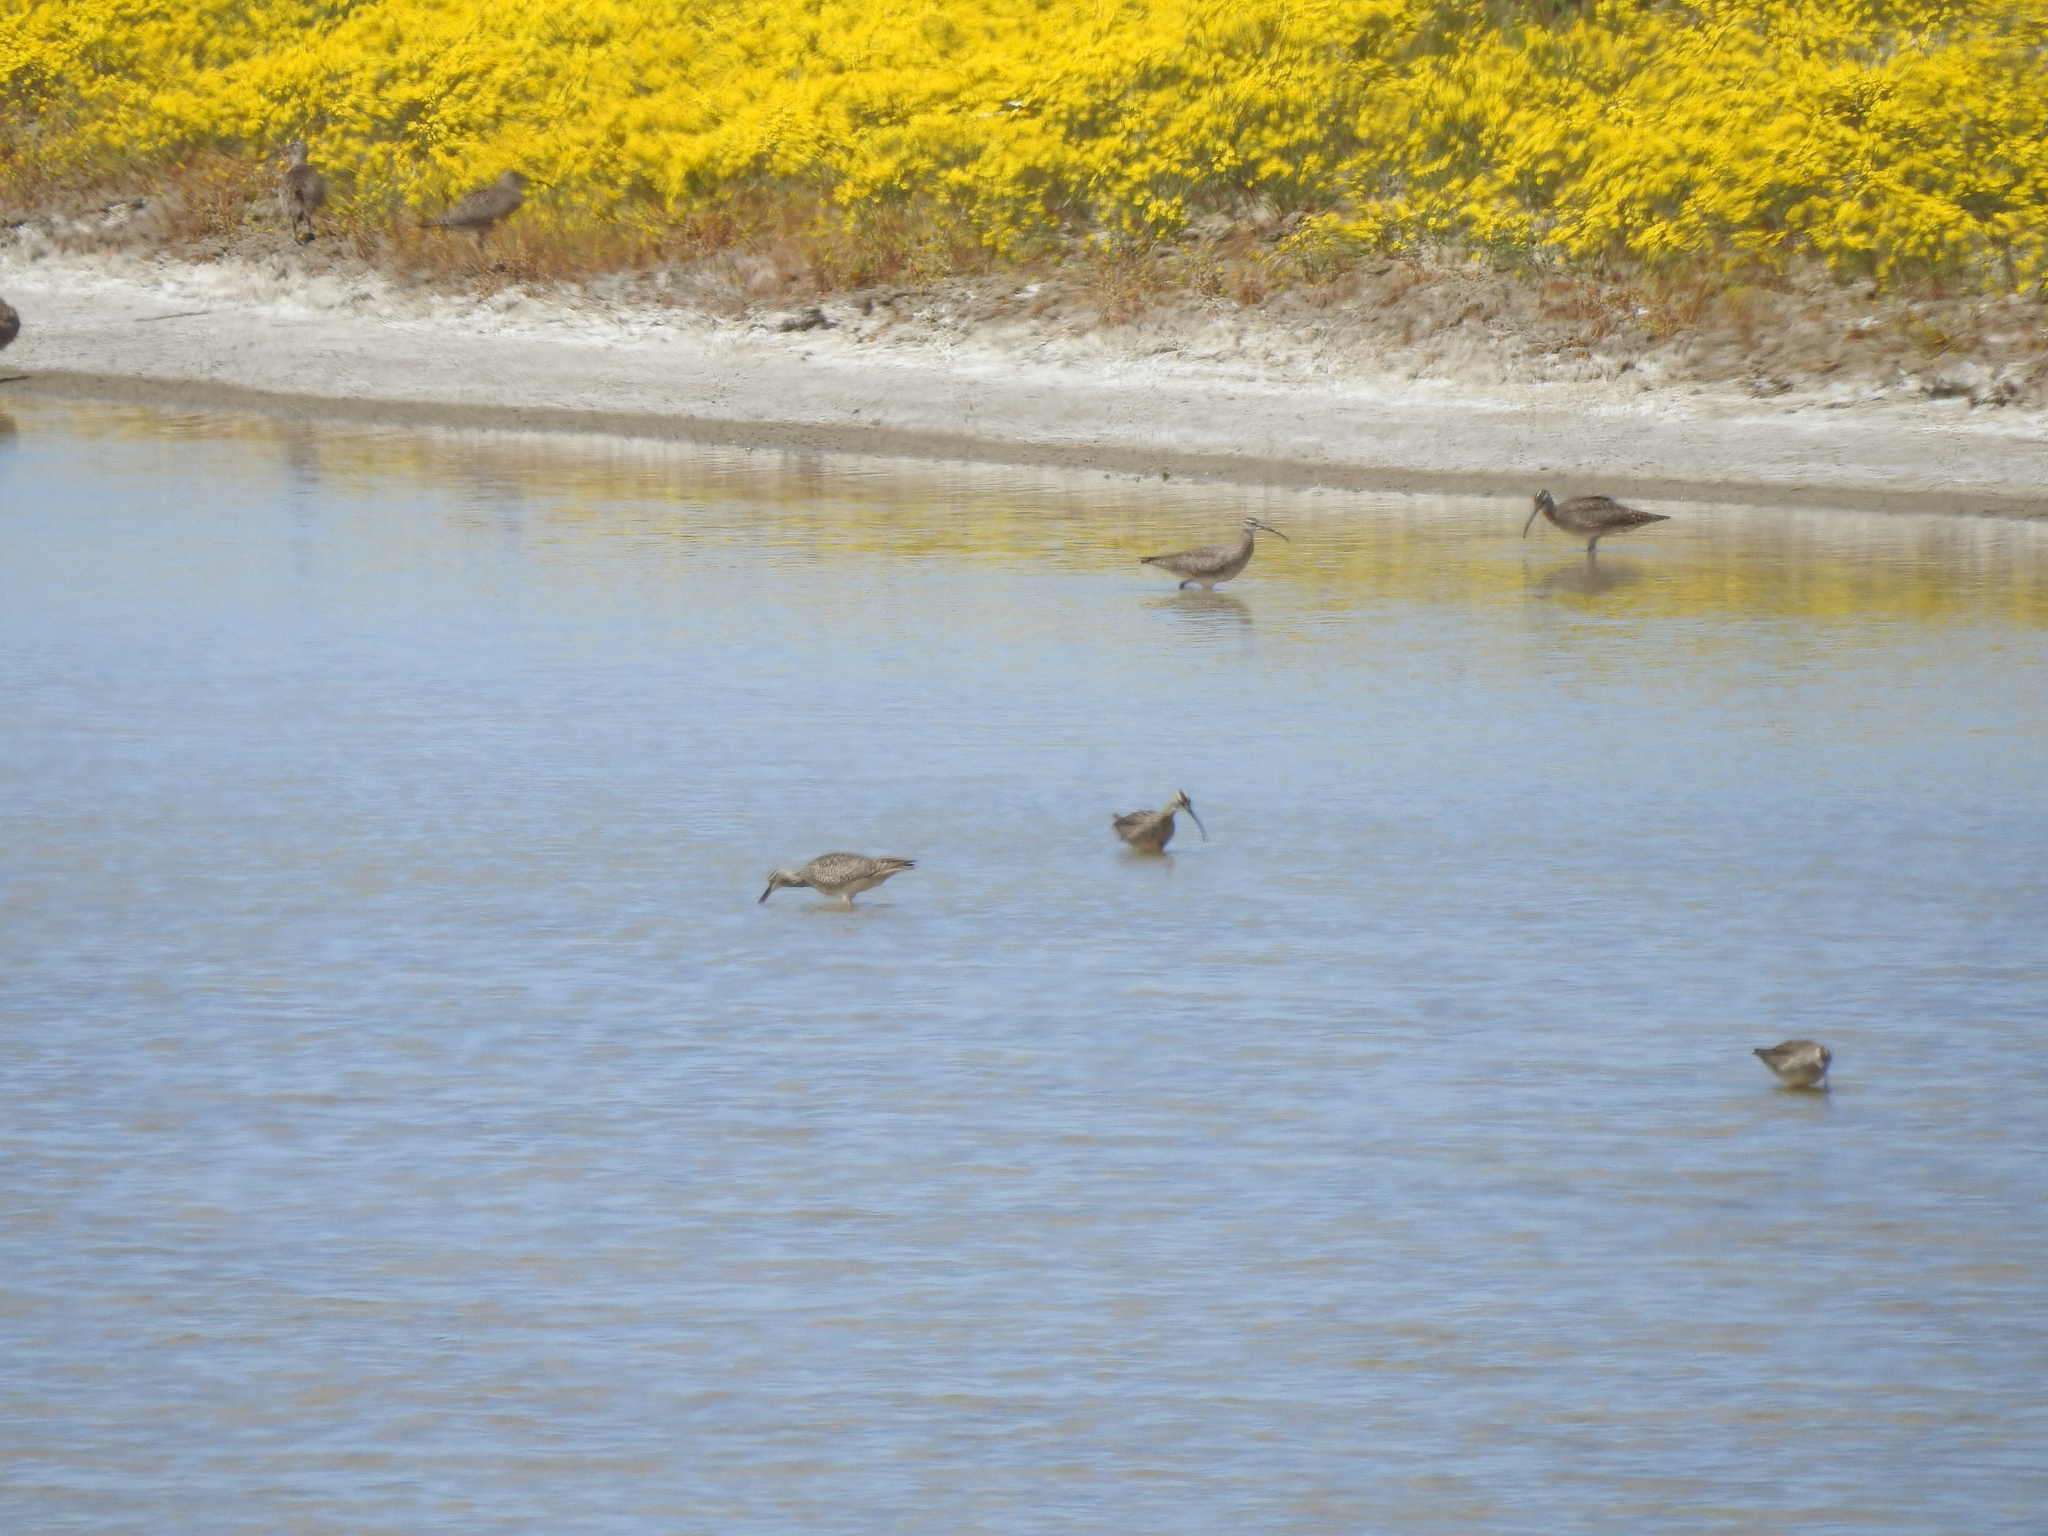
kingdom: Animalia
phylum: Chordata
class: Aves
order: Charadriiformes
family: Scolopacidae
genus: Numenius
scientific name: Numenius phaeopus
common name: Whimbrel
